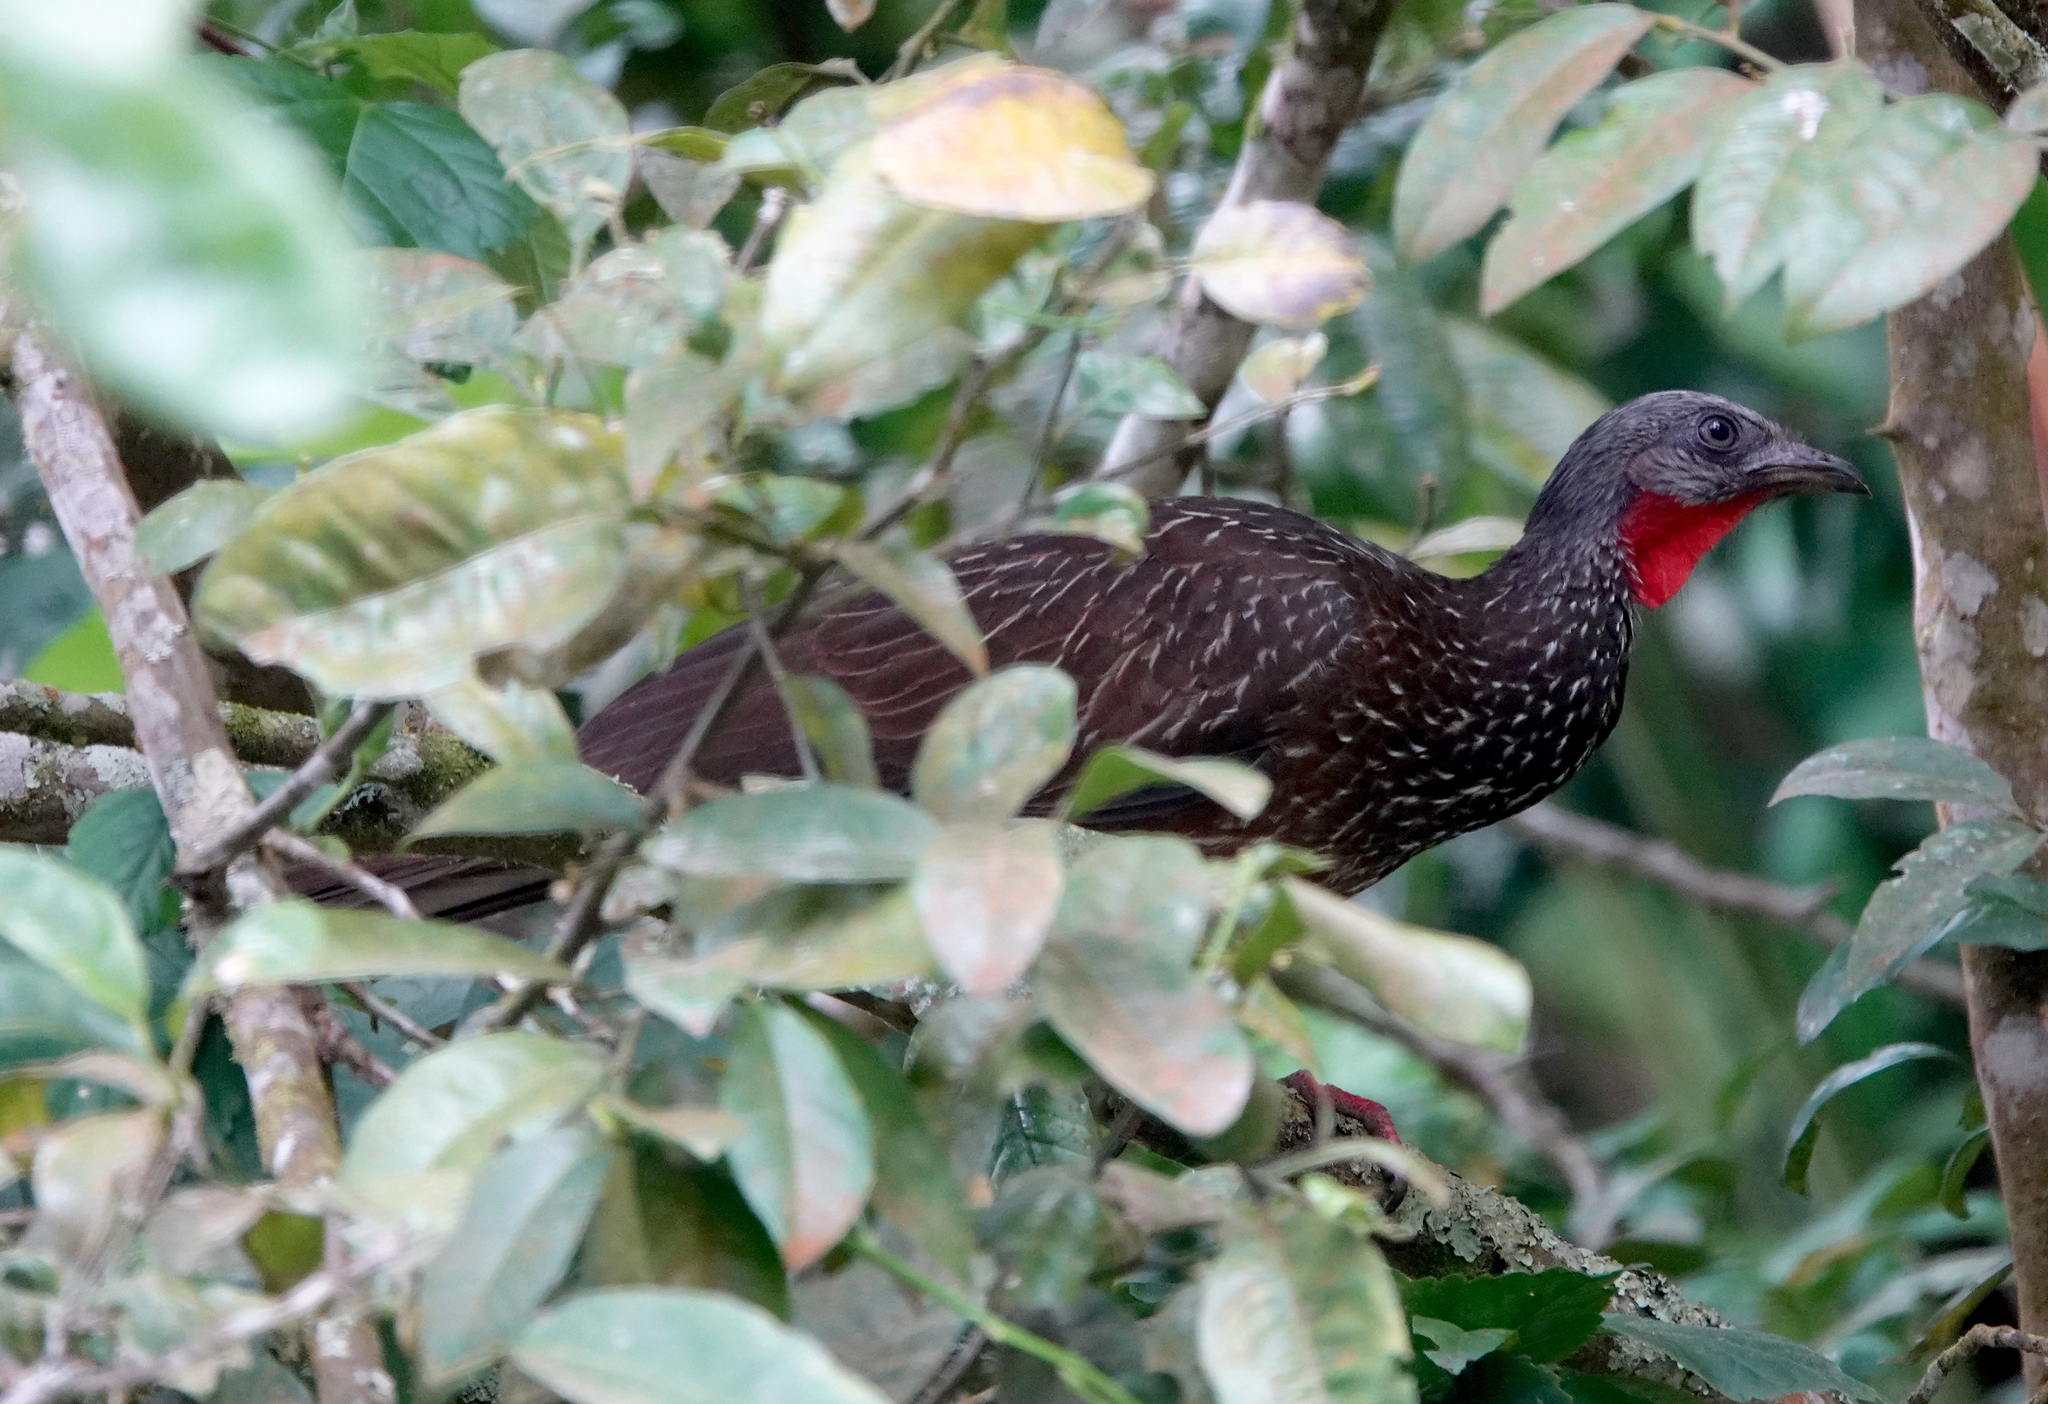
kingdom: Animalia
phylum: Chordata
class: Aves
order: Galliformes
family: Cracidae
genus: Penelope
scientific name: Penelope argyrotis
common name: Band-tailed guan
